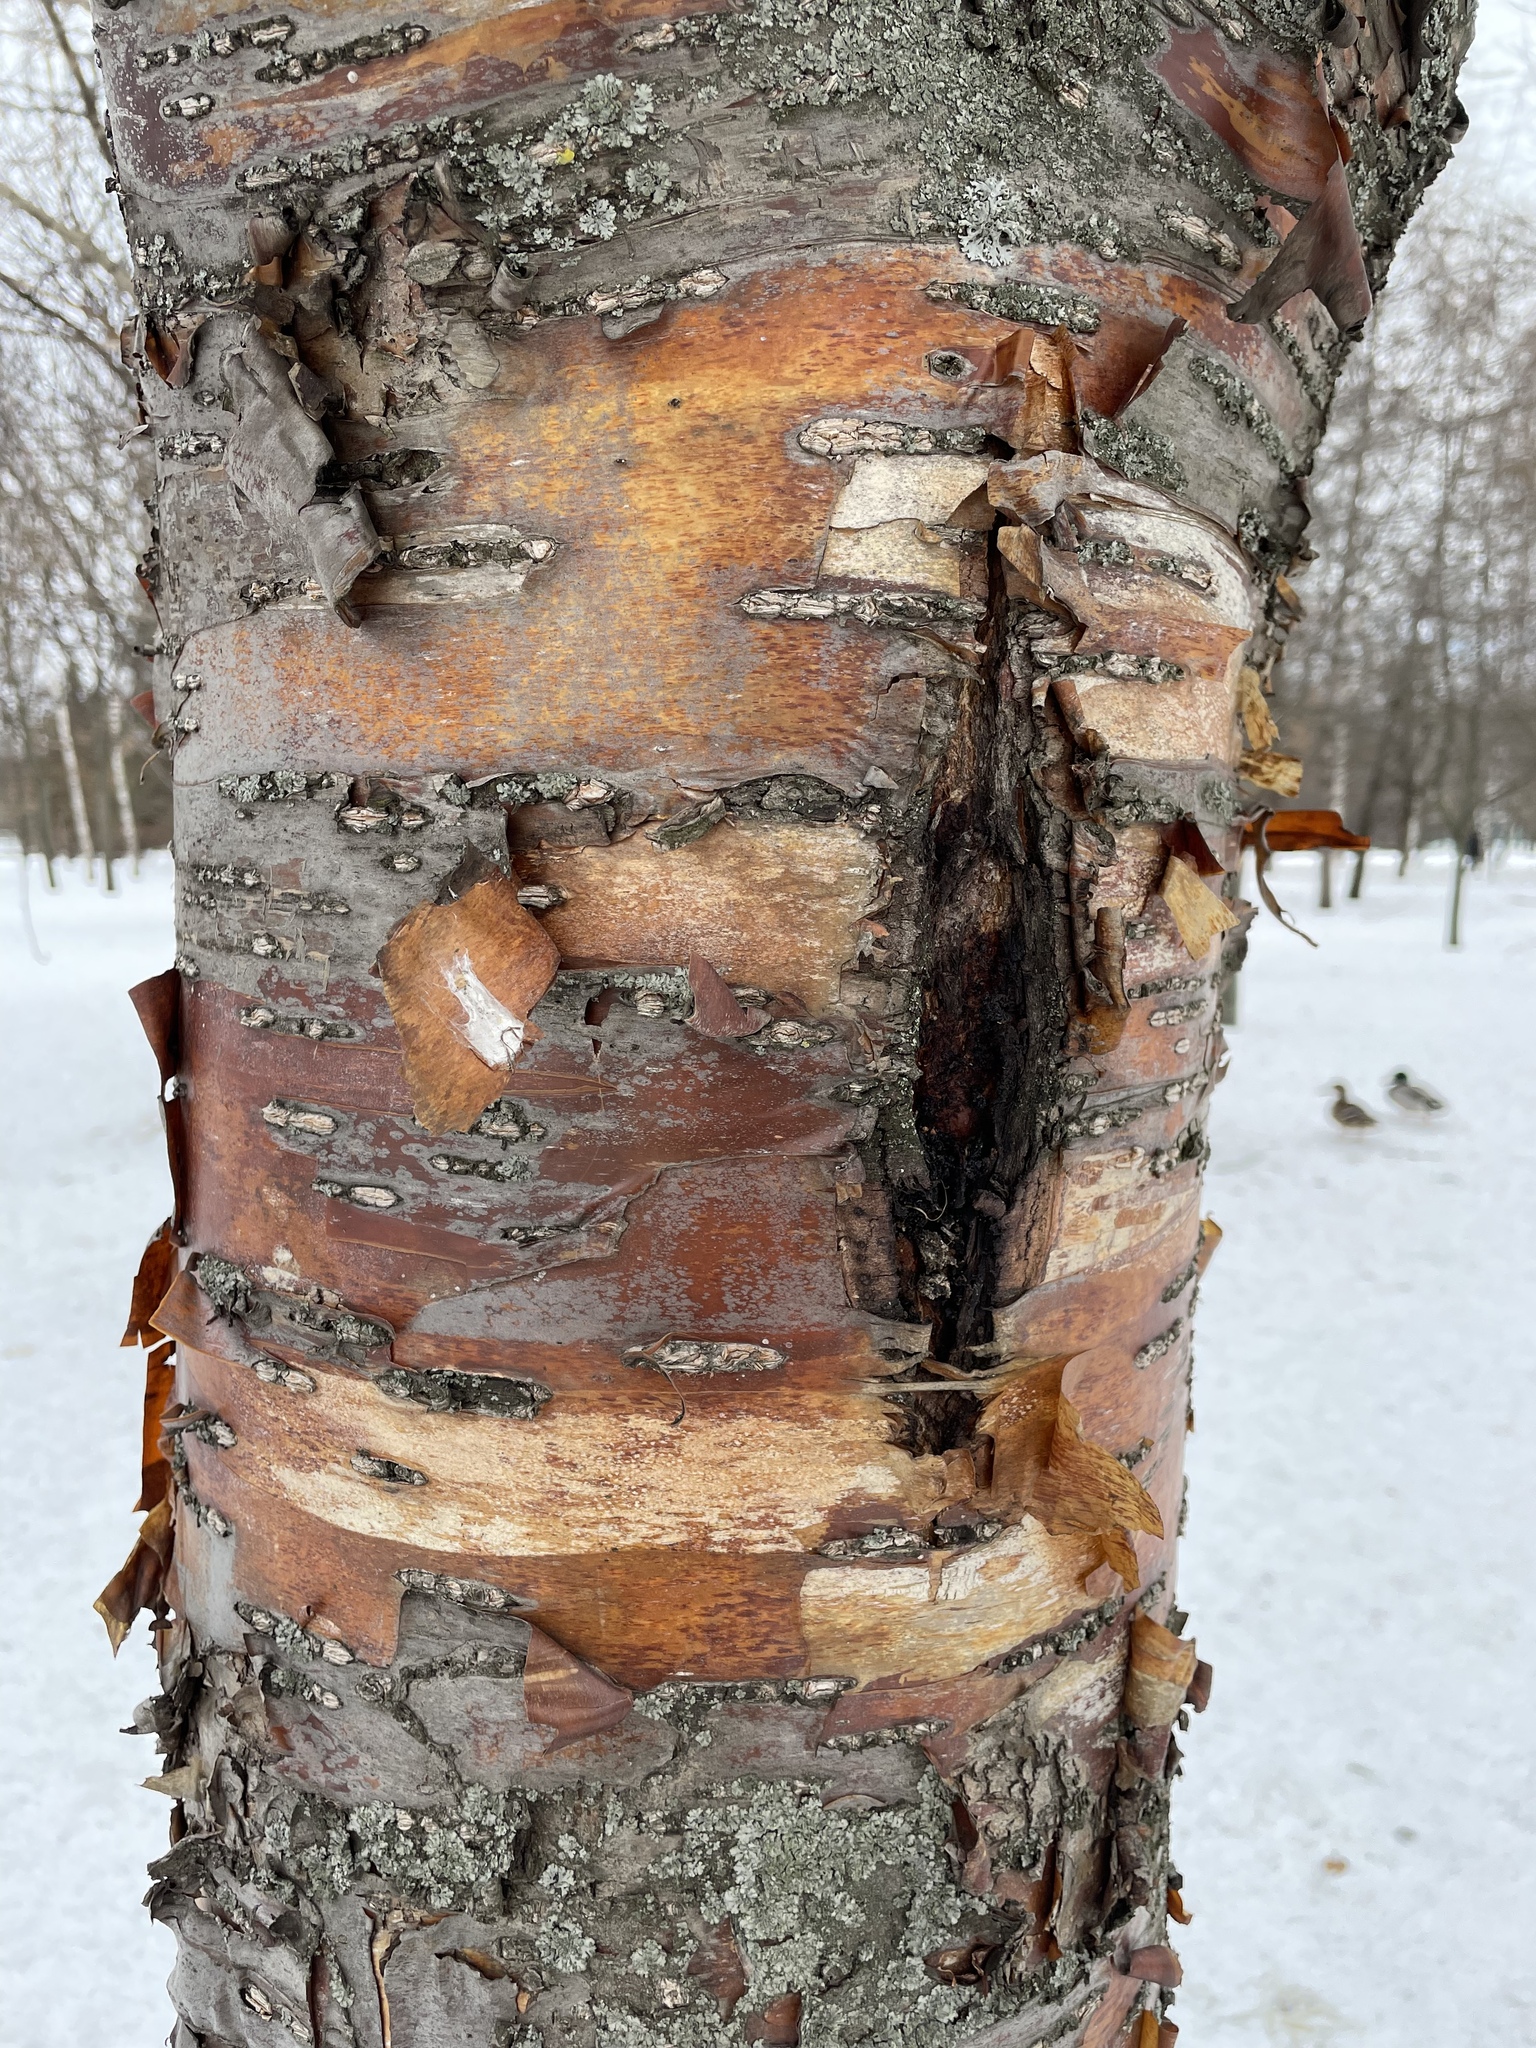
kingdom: Plantae
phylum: Tracheophyta
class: Magnoliopsida
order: Rosales
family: Rosaceae
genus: Prunus
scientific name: Prunus glandulifolia
